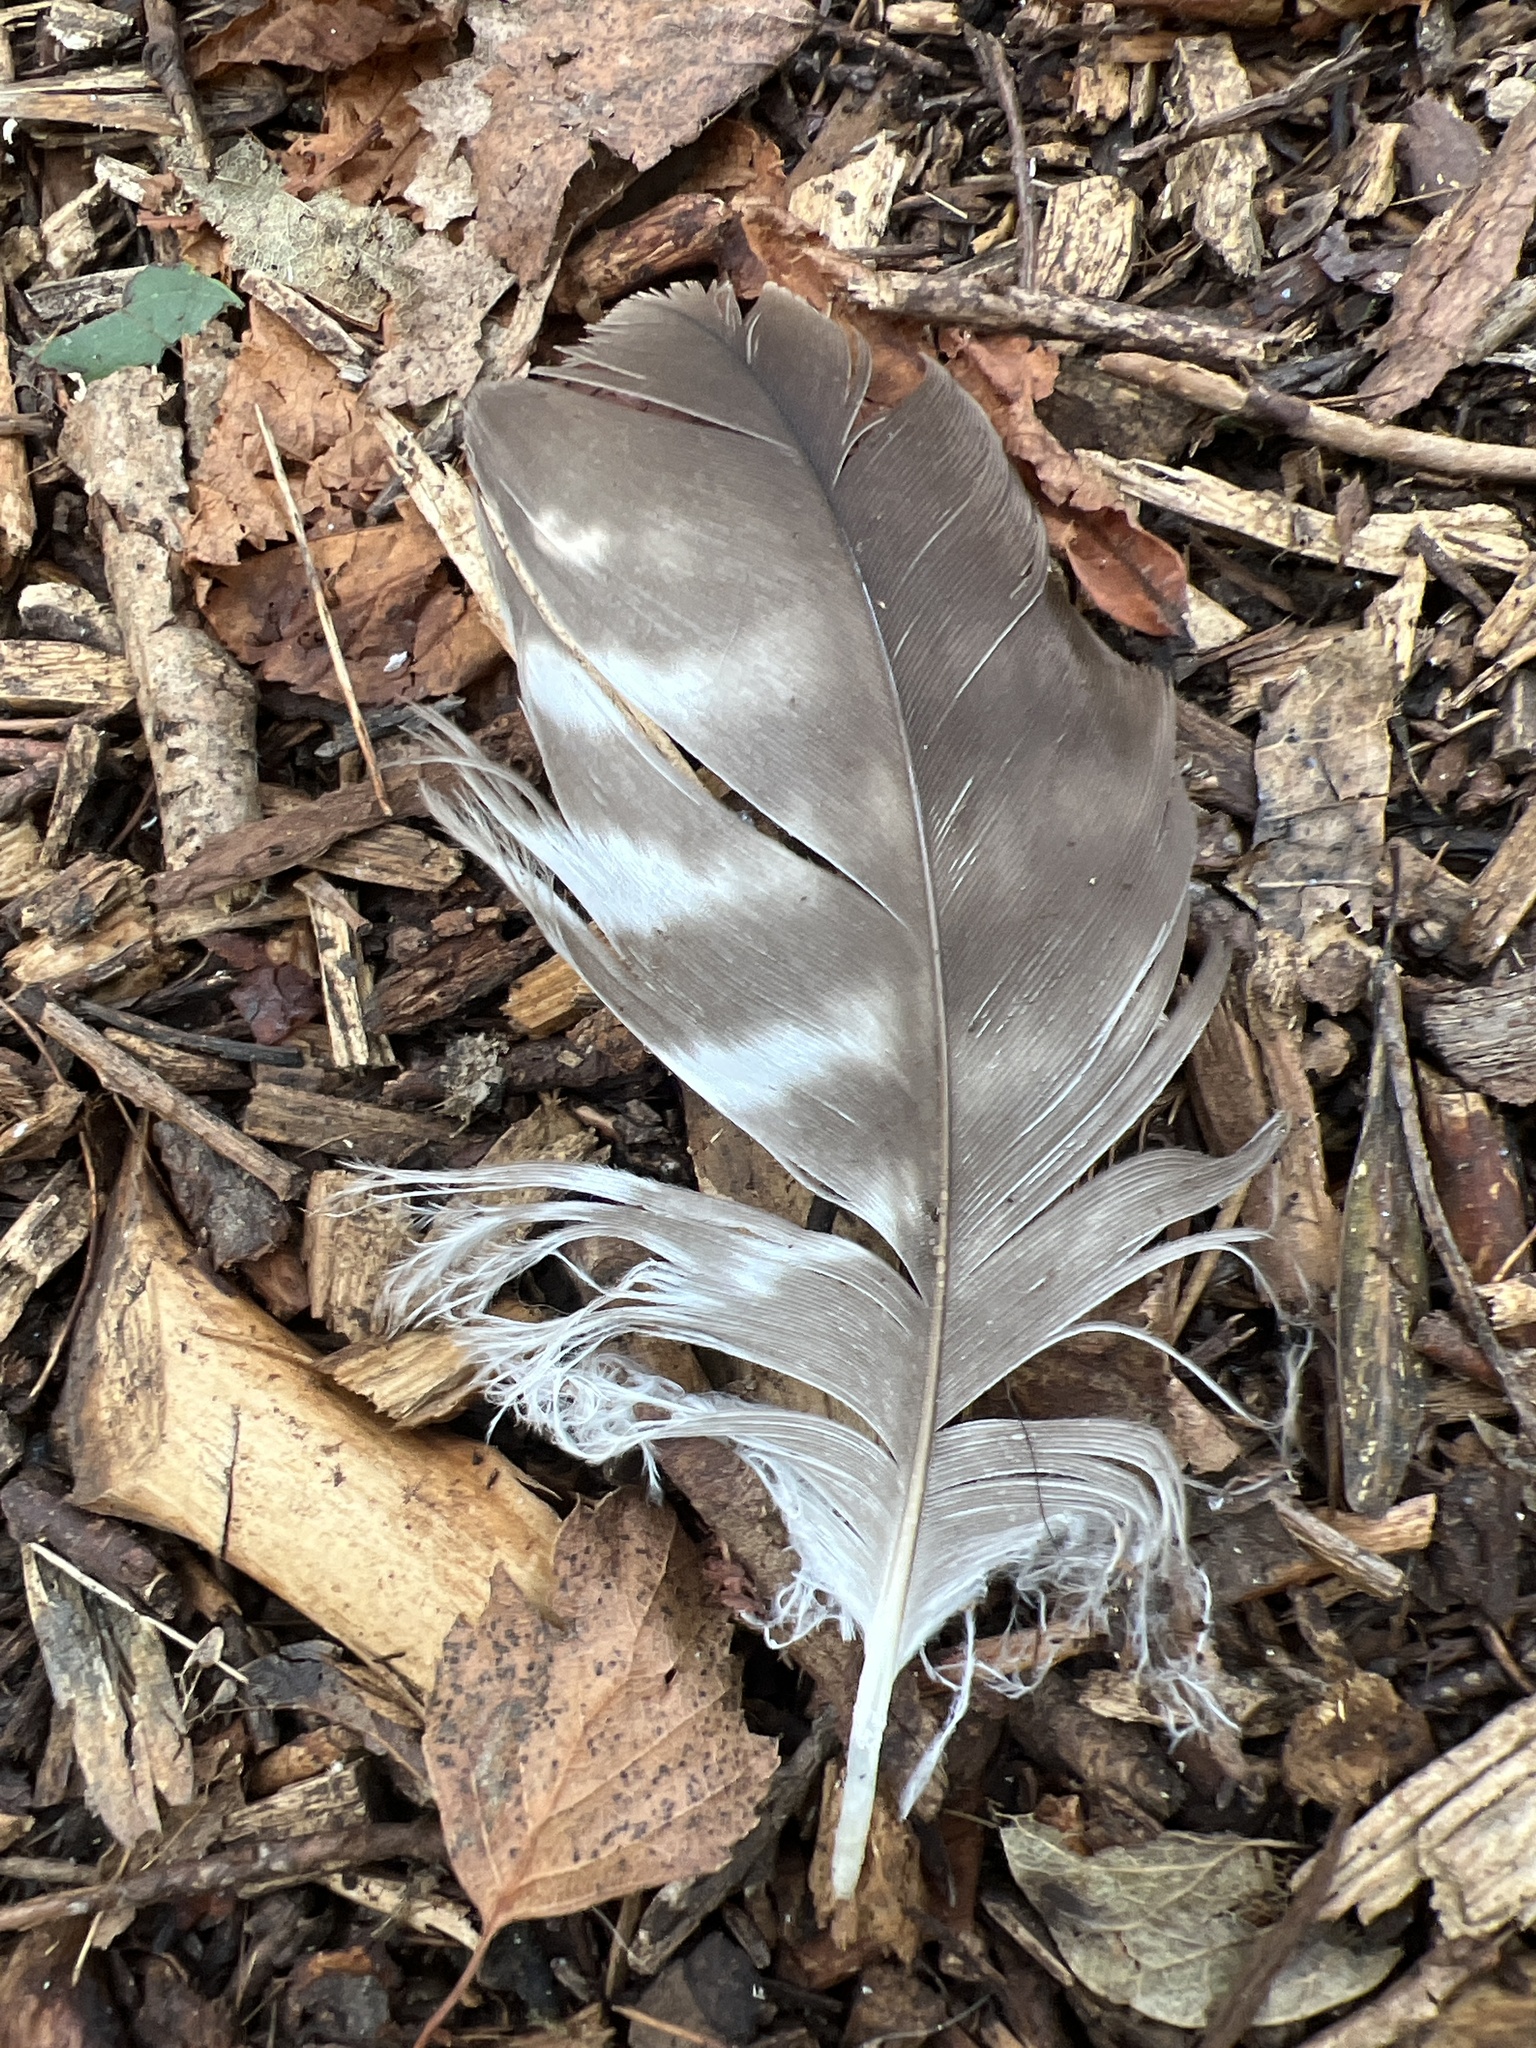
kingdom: Animalia
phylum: Chordata
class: Aves
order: Accipitriformes
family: Accipitridae
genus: Buteo
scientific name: Buteo buteo
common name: Common buzzard
